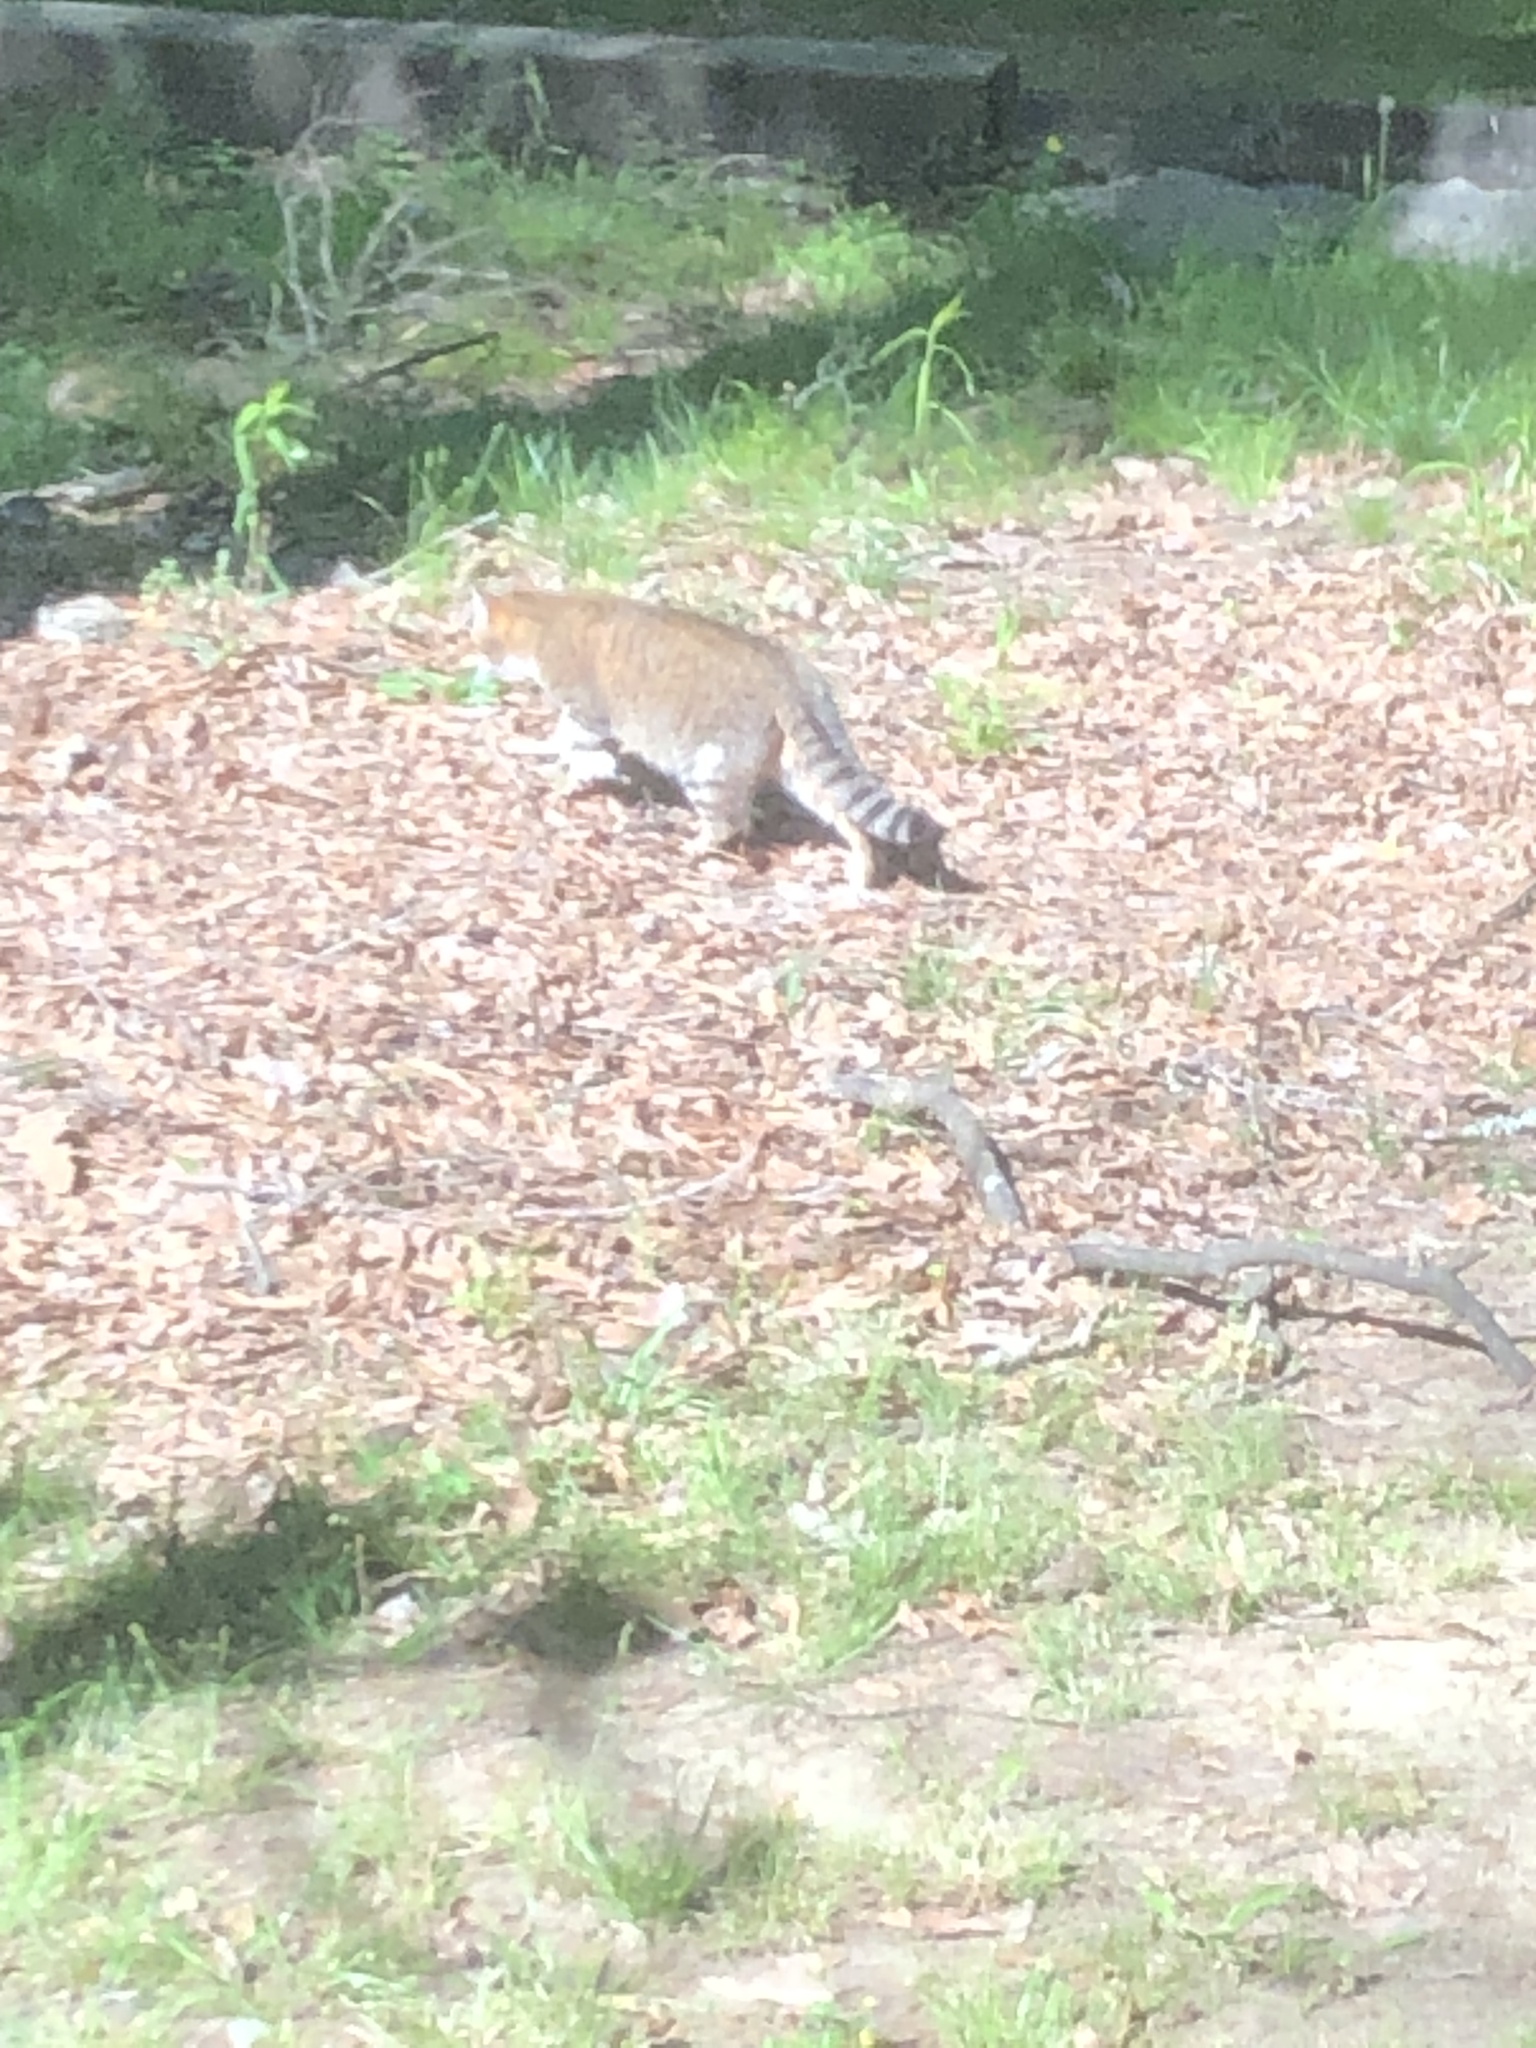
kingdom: Animalia
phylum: Chordata
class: Mammalia
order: Carnivora
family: Felidae
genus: Felis
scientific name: Felis catus
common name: Domestic cat
